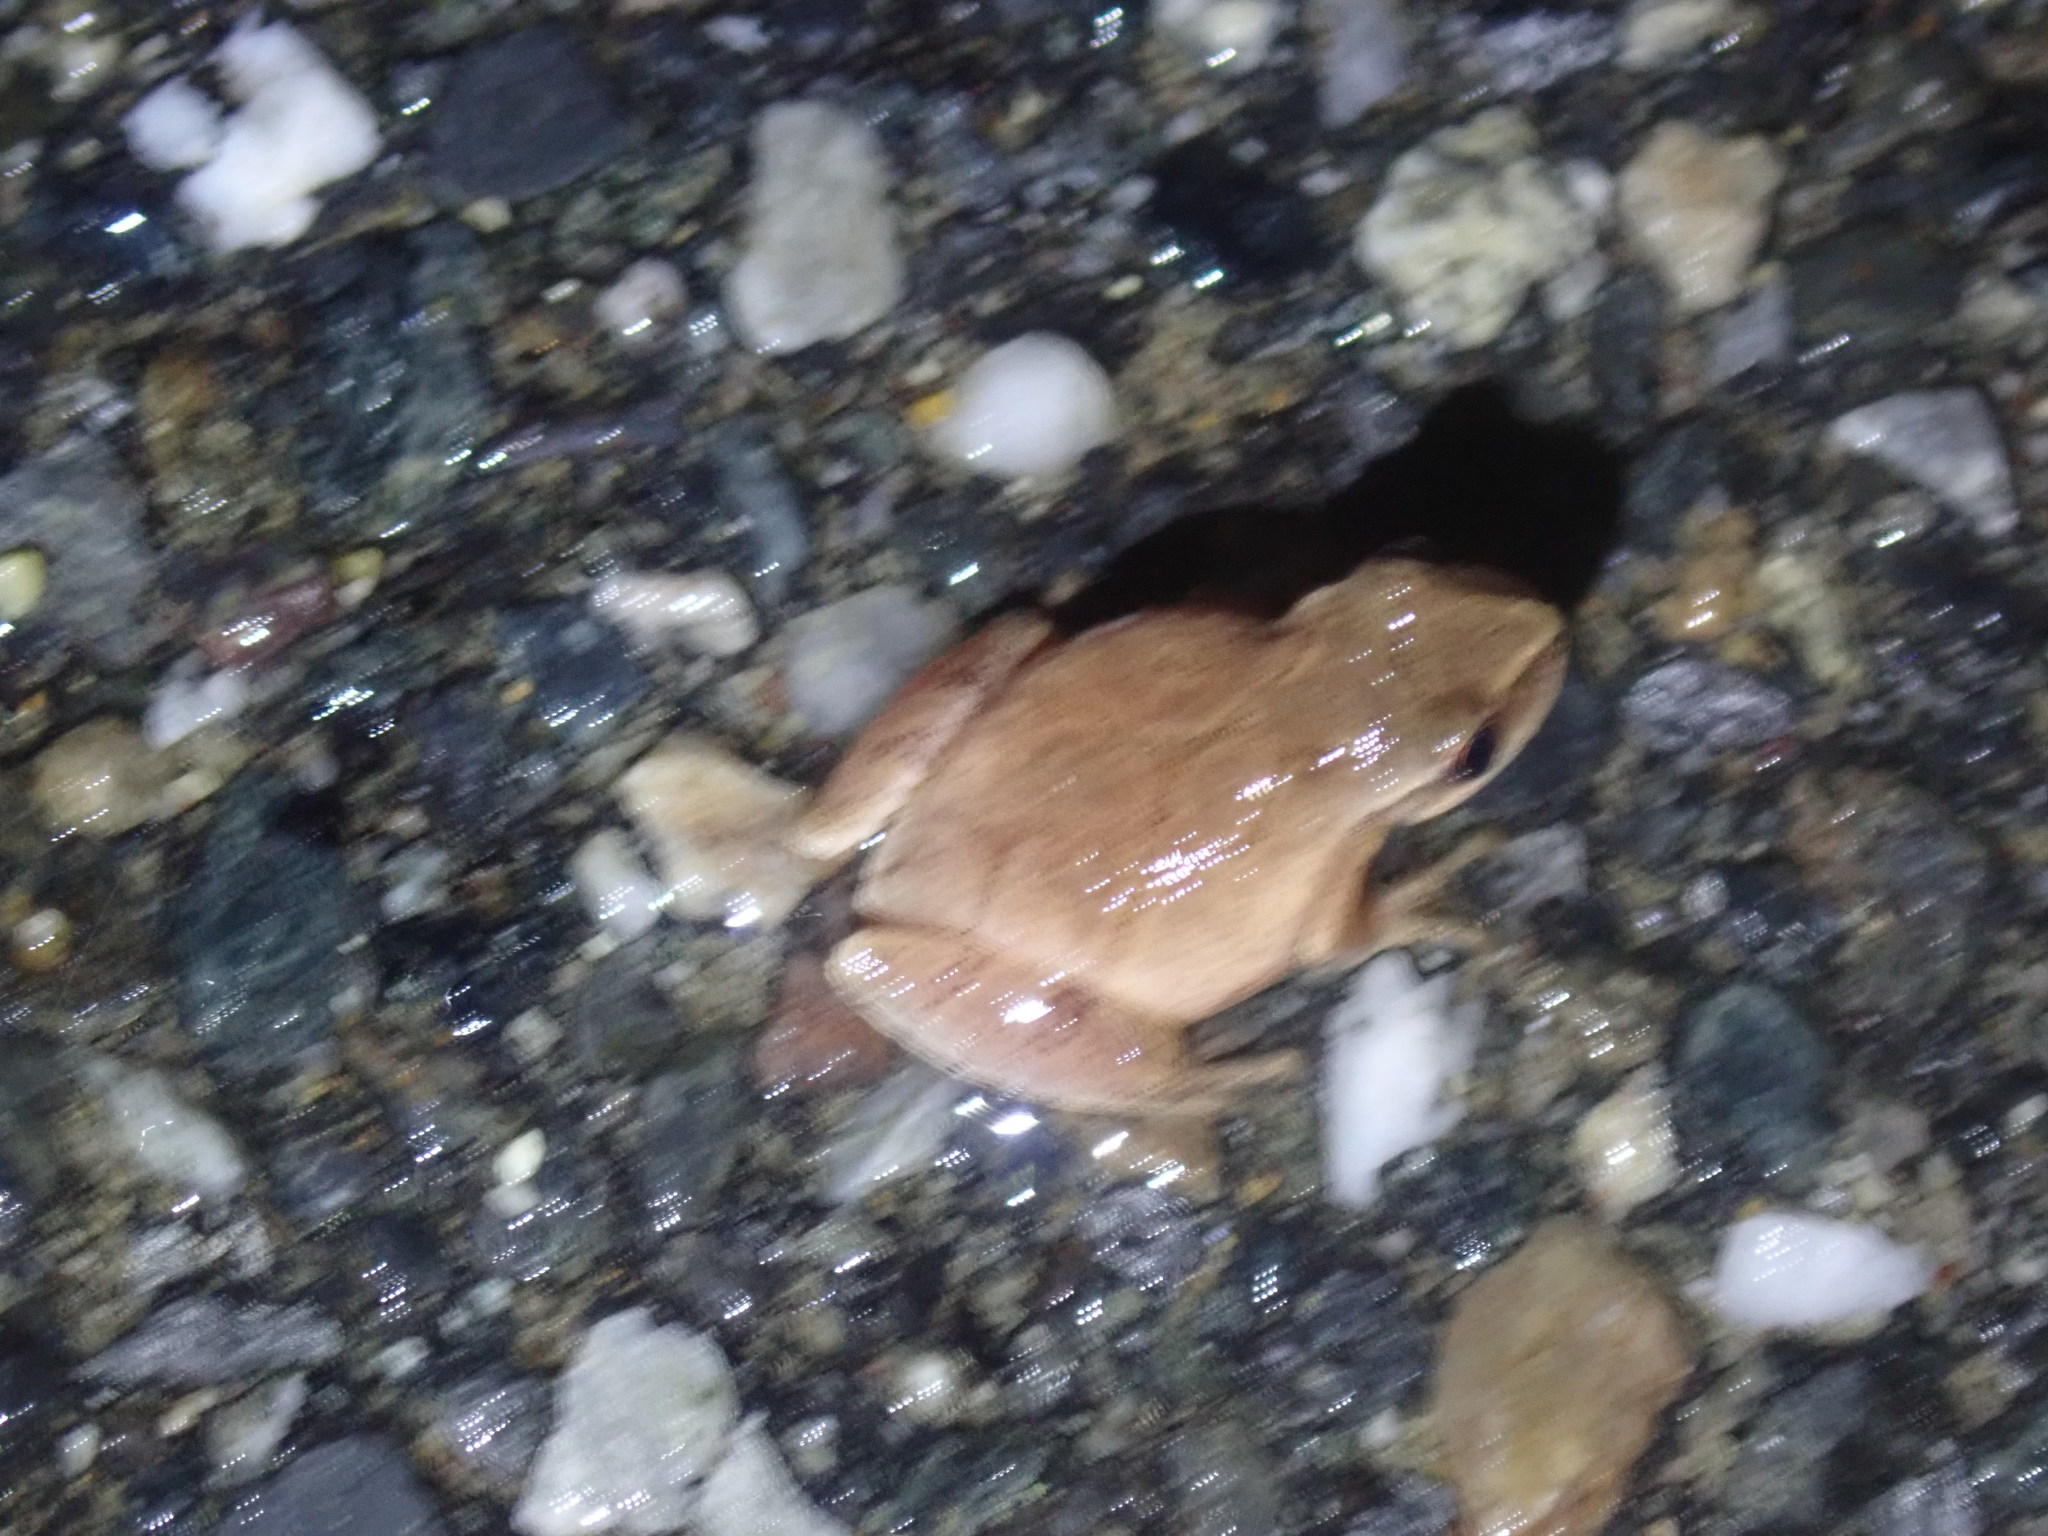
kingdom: Animalia
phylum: Chordata
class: Amphibia
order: Anura
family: Hylidae
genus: Pseudacris
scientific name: Pseudacris crucifer
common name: Spring peeper
